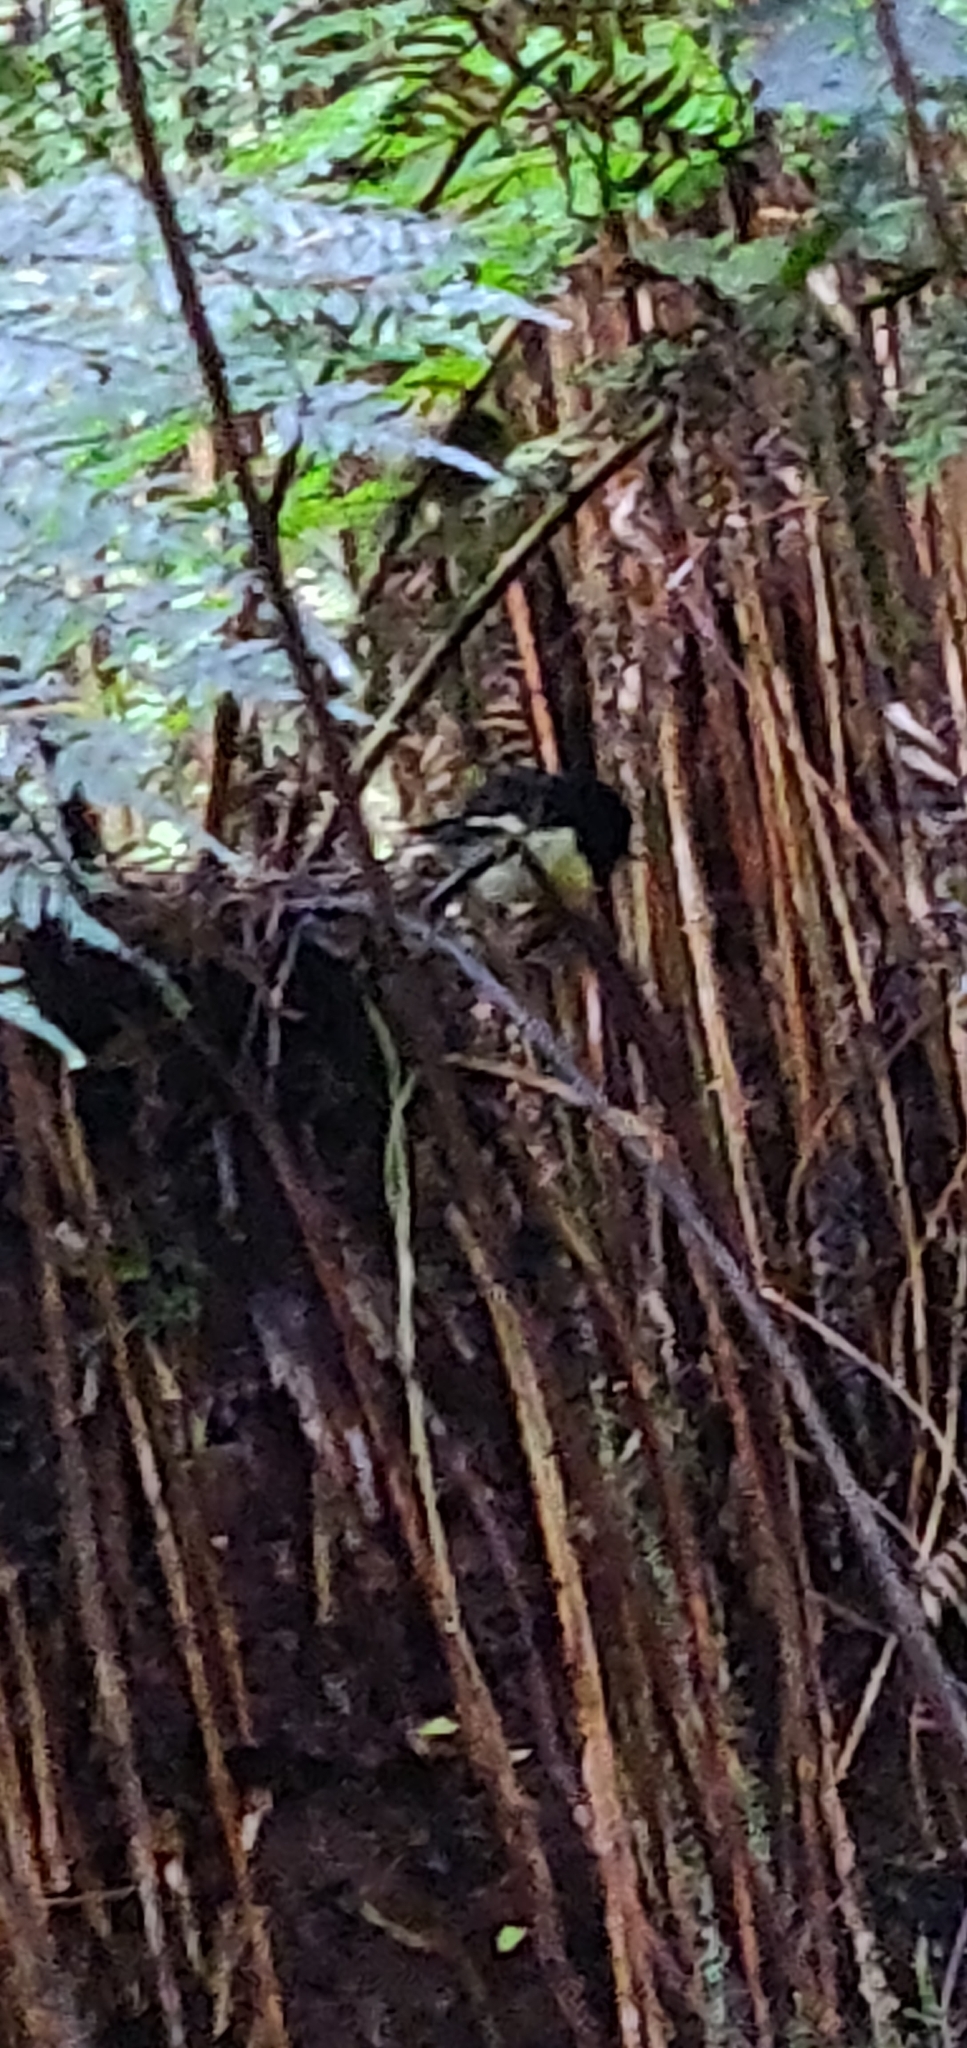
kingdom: Animalia
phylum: Chordata
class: Aves
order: Passeriformes
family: Petroicidae
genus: Petroica
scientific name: Petroica macrocephala
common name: Tomtit
